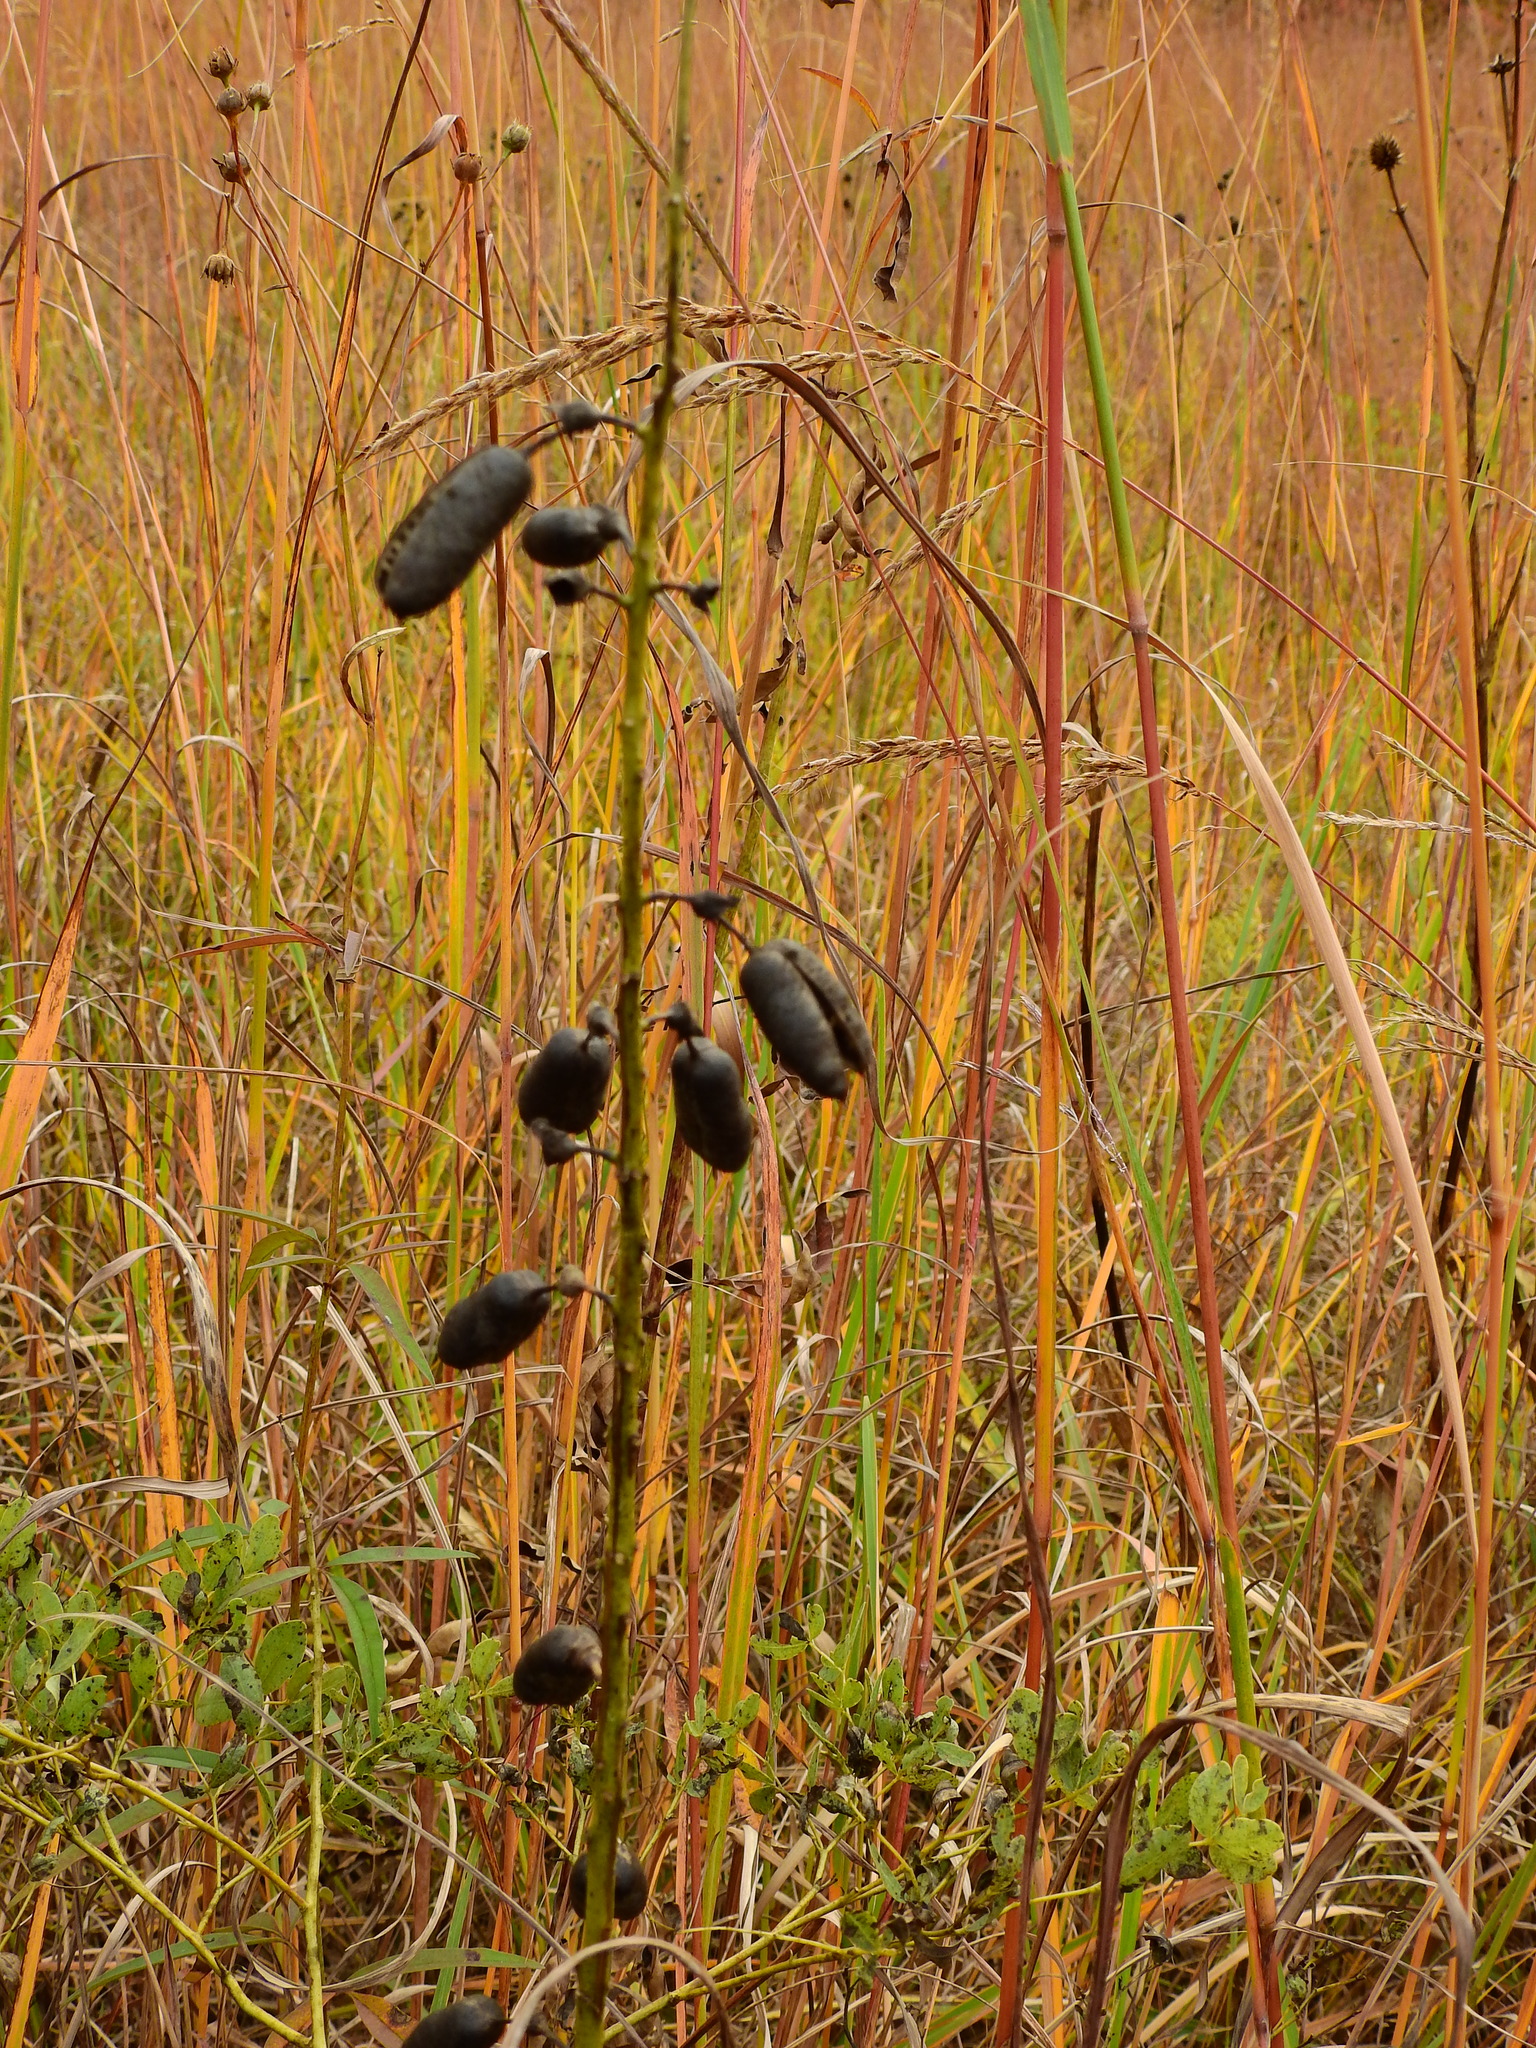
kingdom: Plantae
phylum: Tracheophyta
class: Magnoliopsida
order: Fabales
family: Fabaceae
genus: Baptisia
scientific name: Baptisia alba
